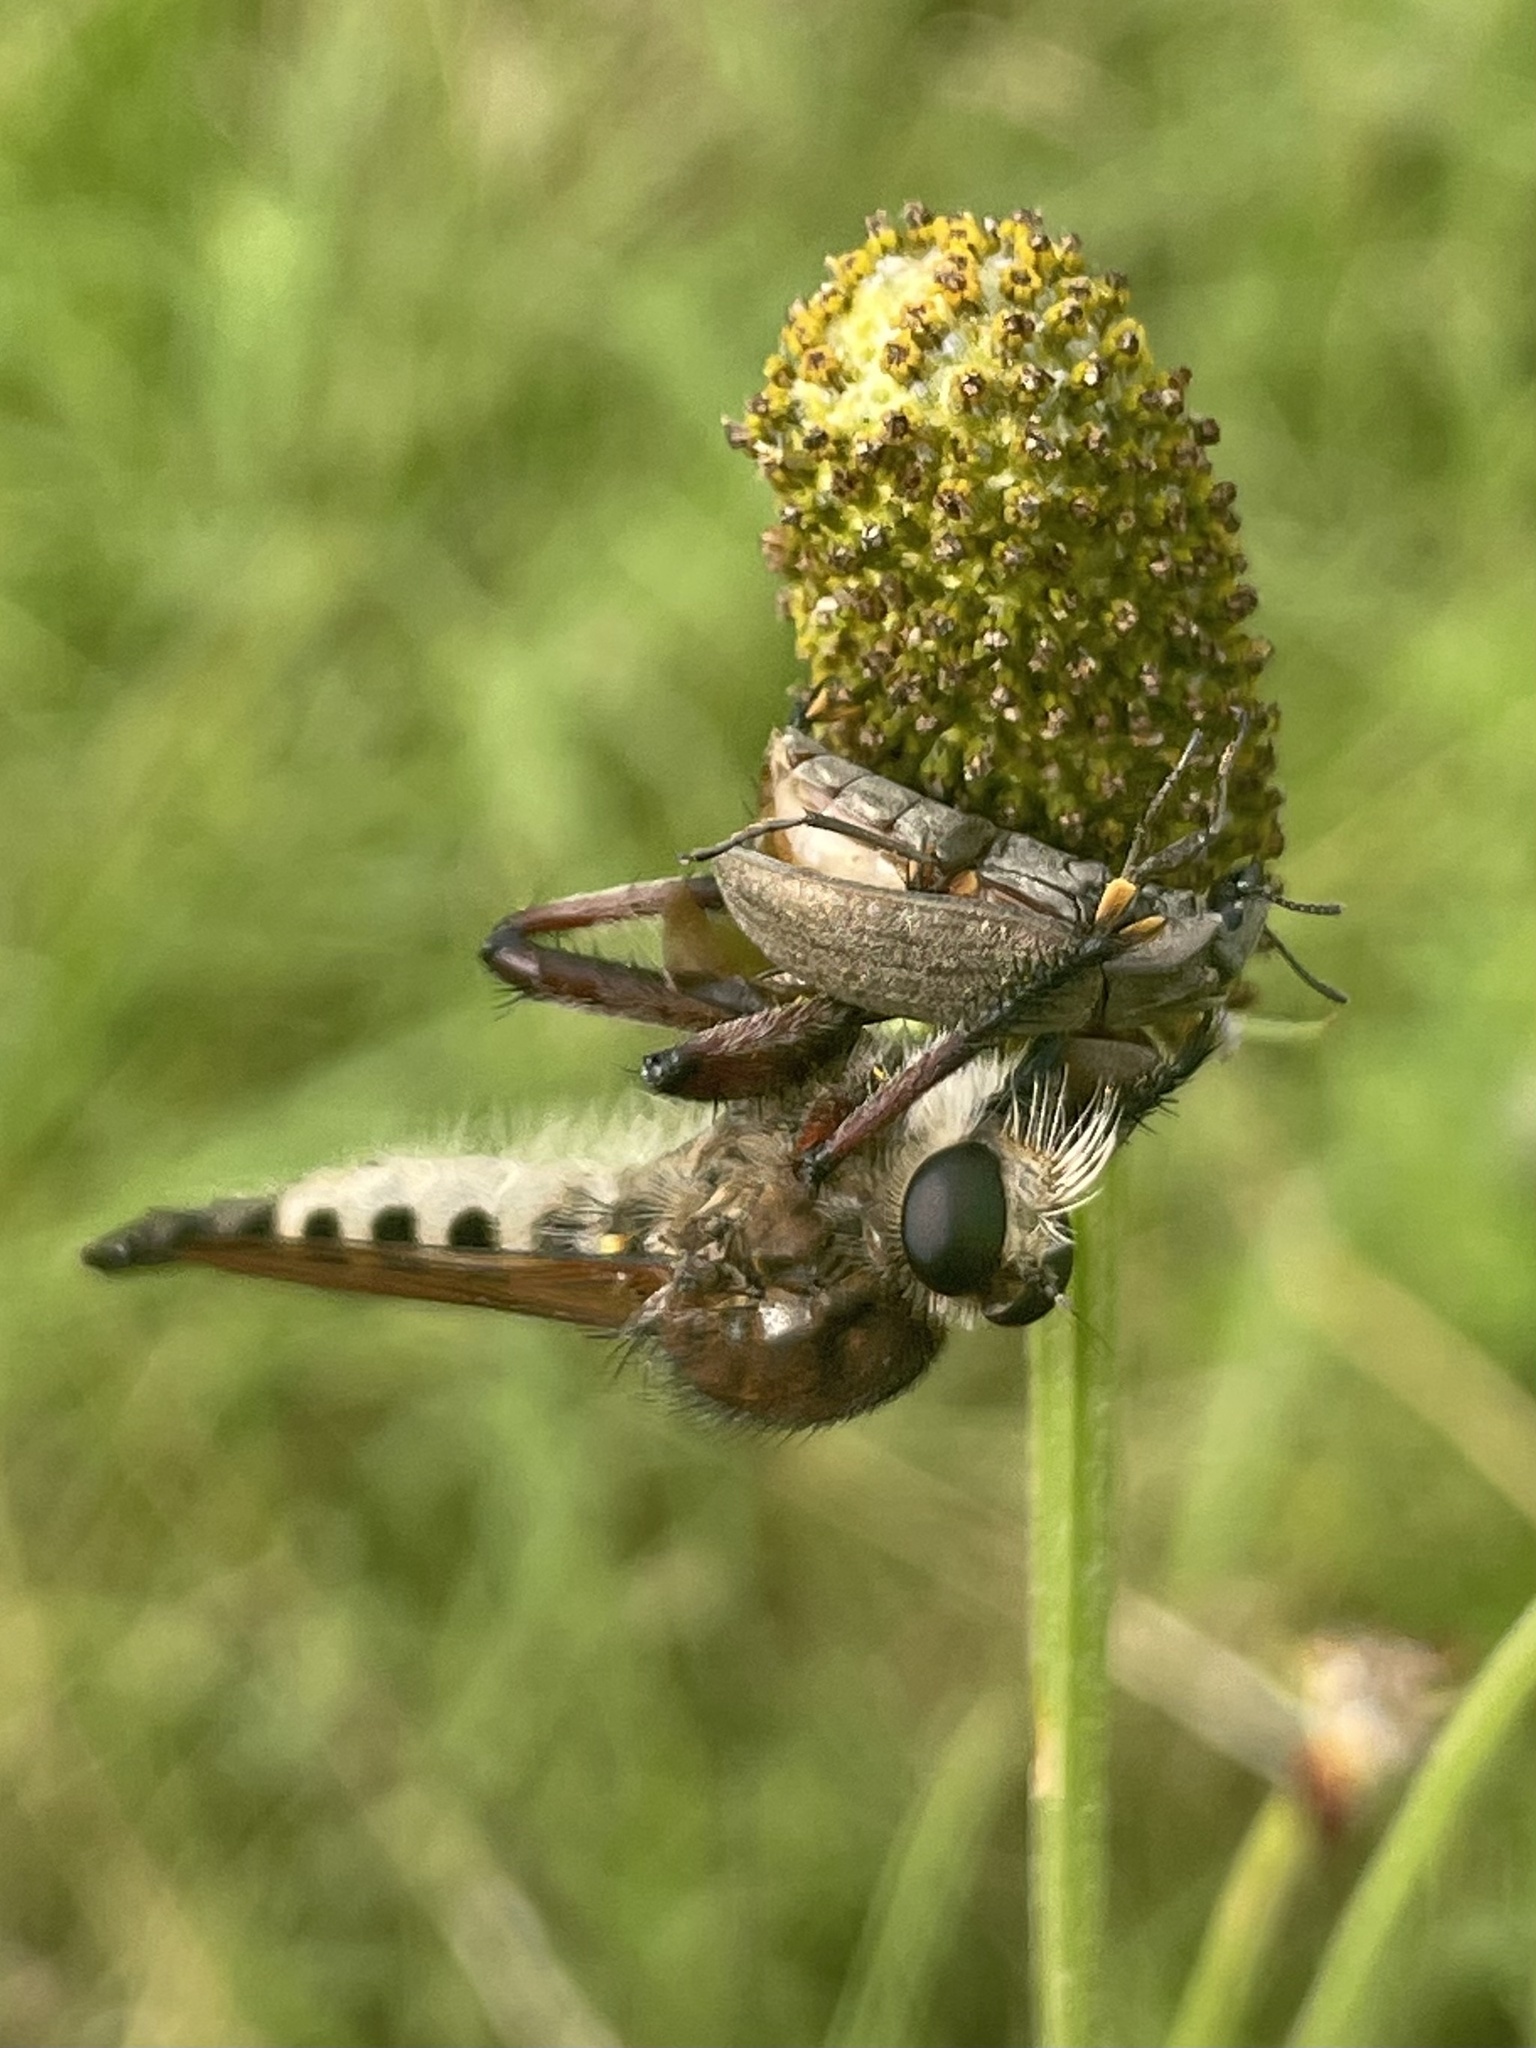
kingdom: Animalia
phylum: Arthropoda
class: Insecta
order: Diptera
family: Asilidae
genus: Promachus
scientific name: Promachus hinei
